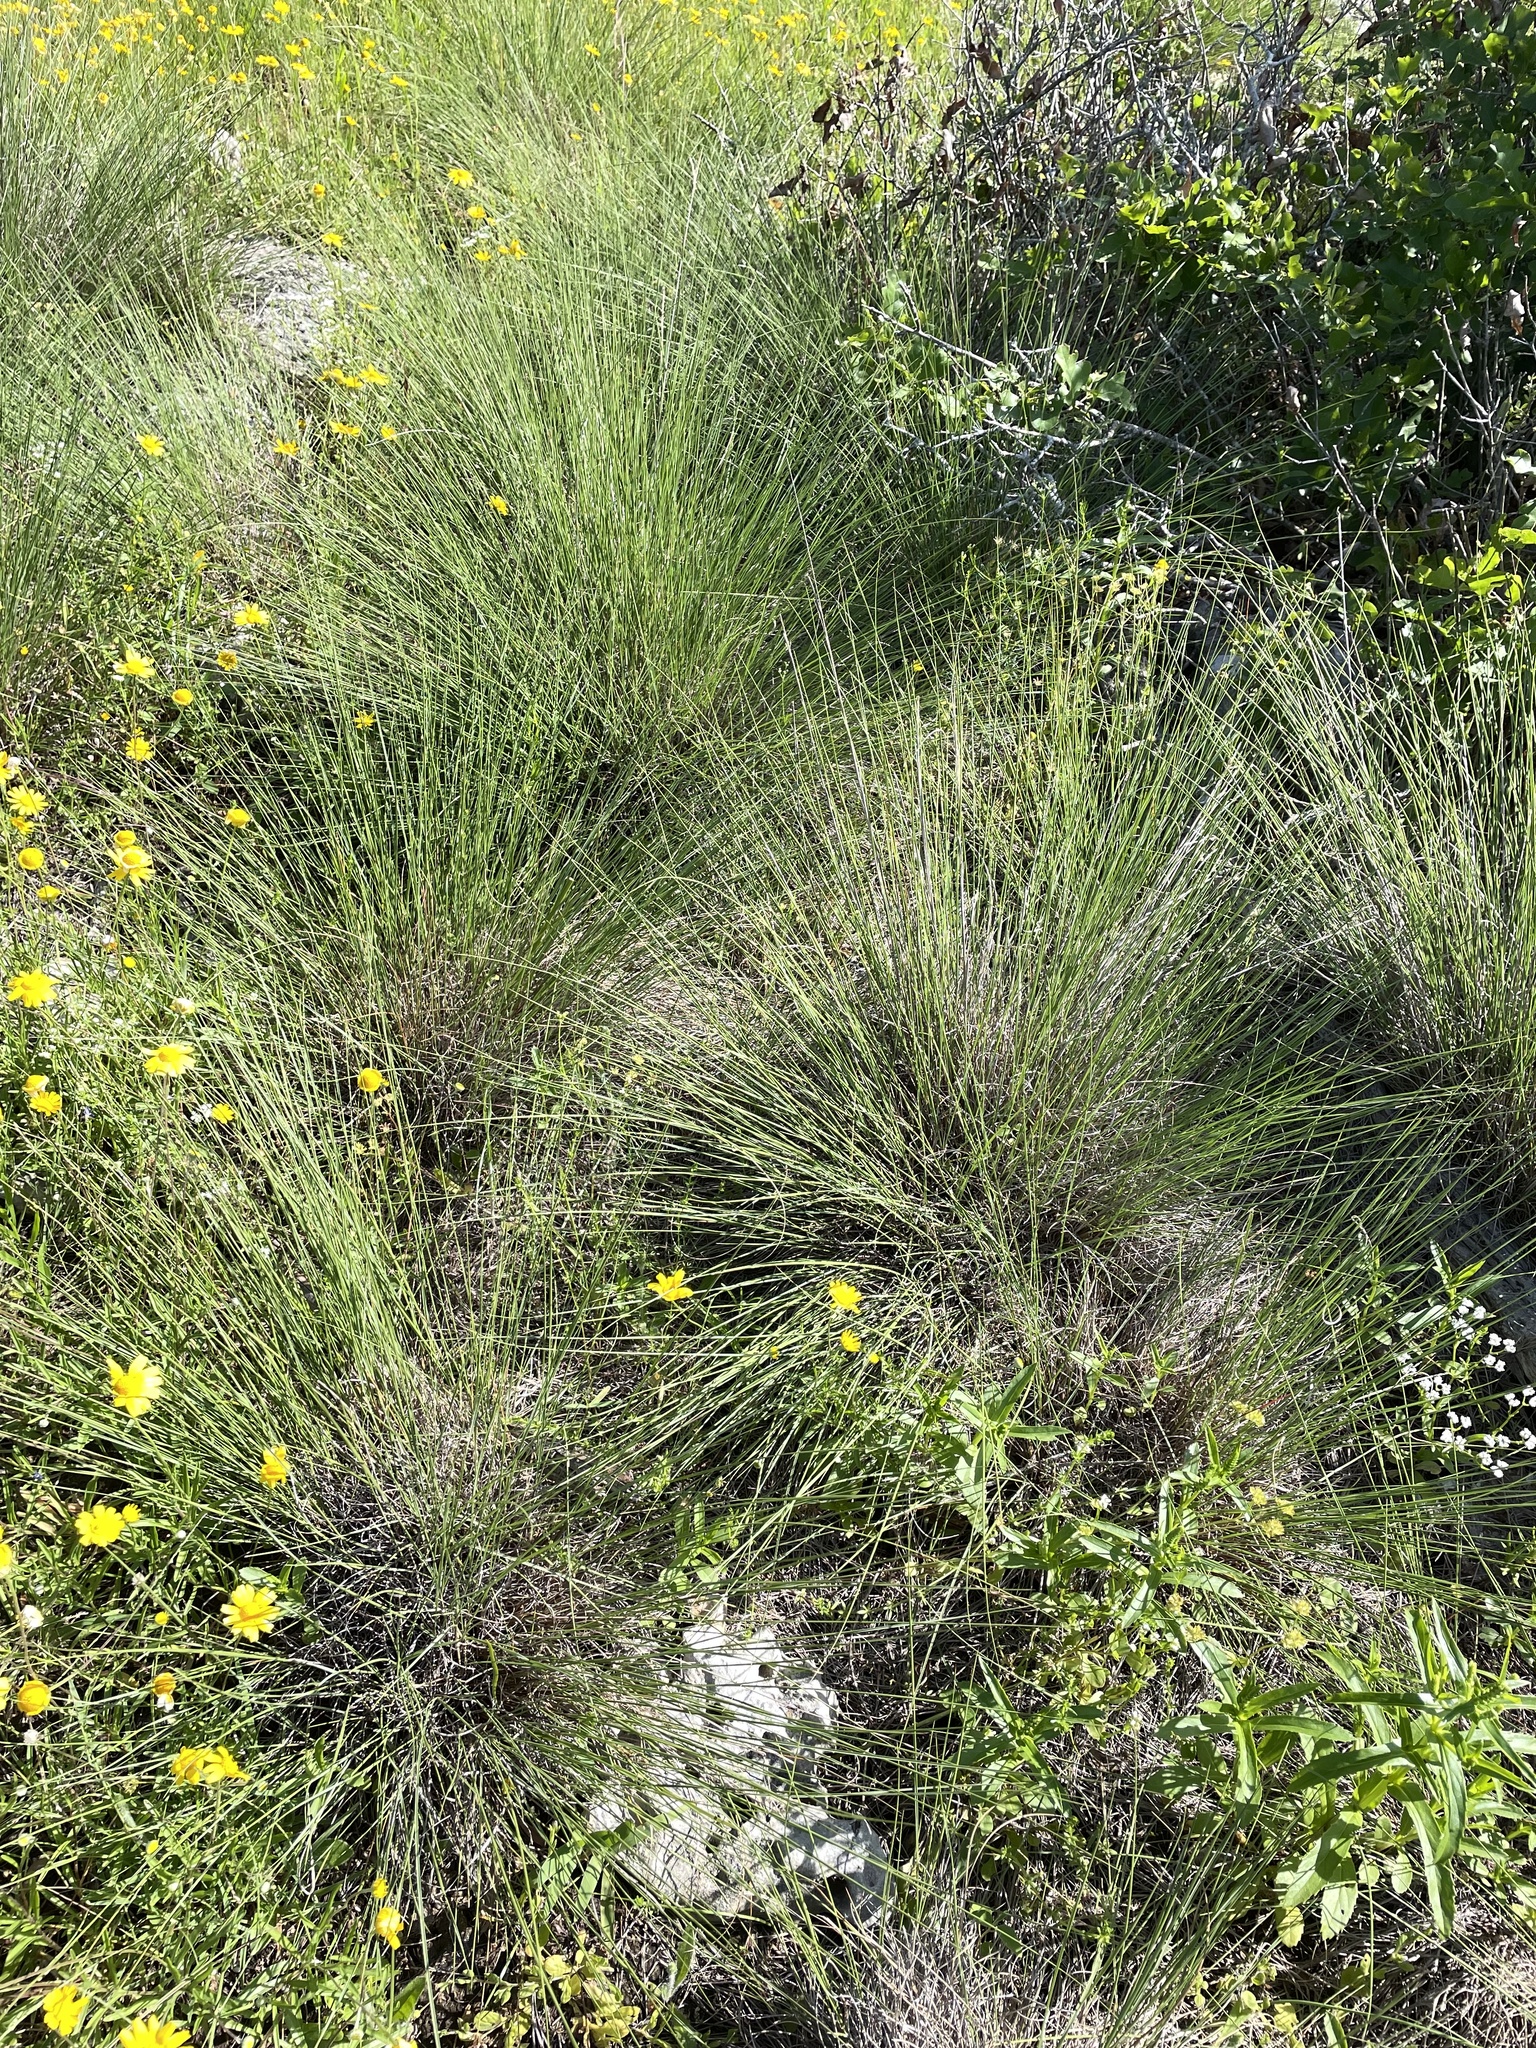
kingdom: Plantae
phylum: Tracheophyta
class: Liliopsida
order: Poales
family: Poaceae
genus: Muhlenbergia
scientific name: Muhlenbergia reverchonii
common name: Seep muhly
